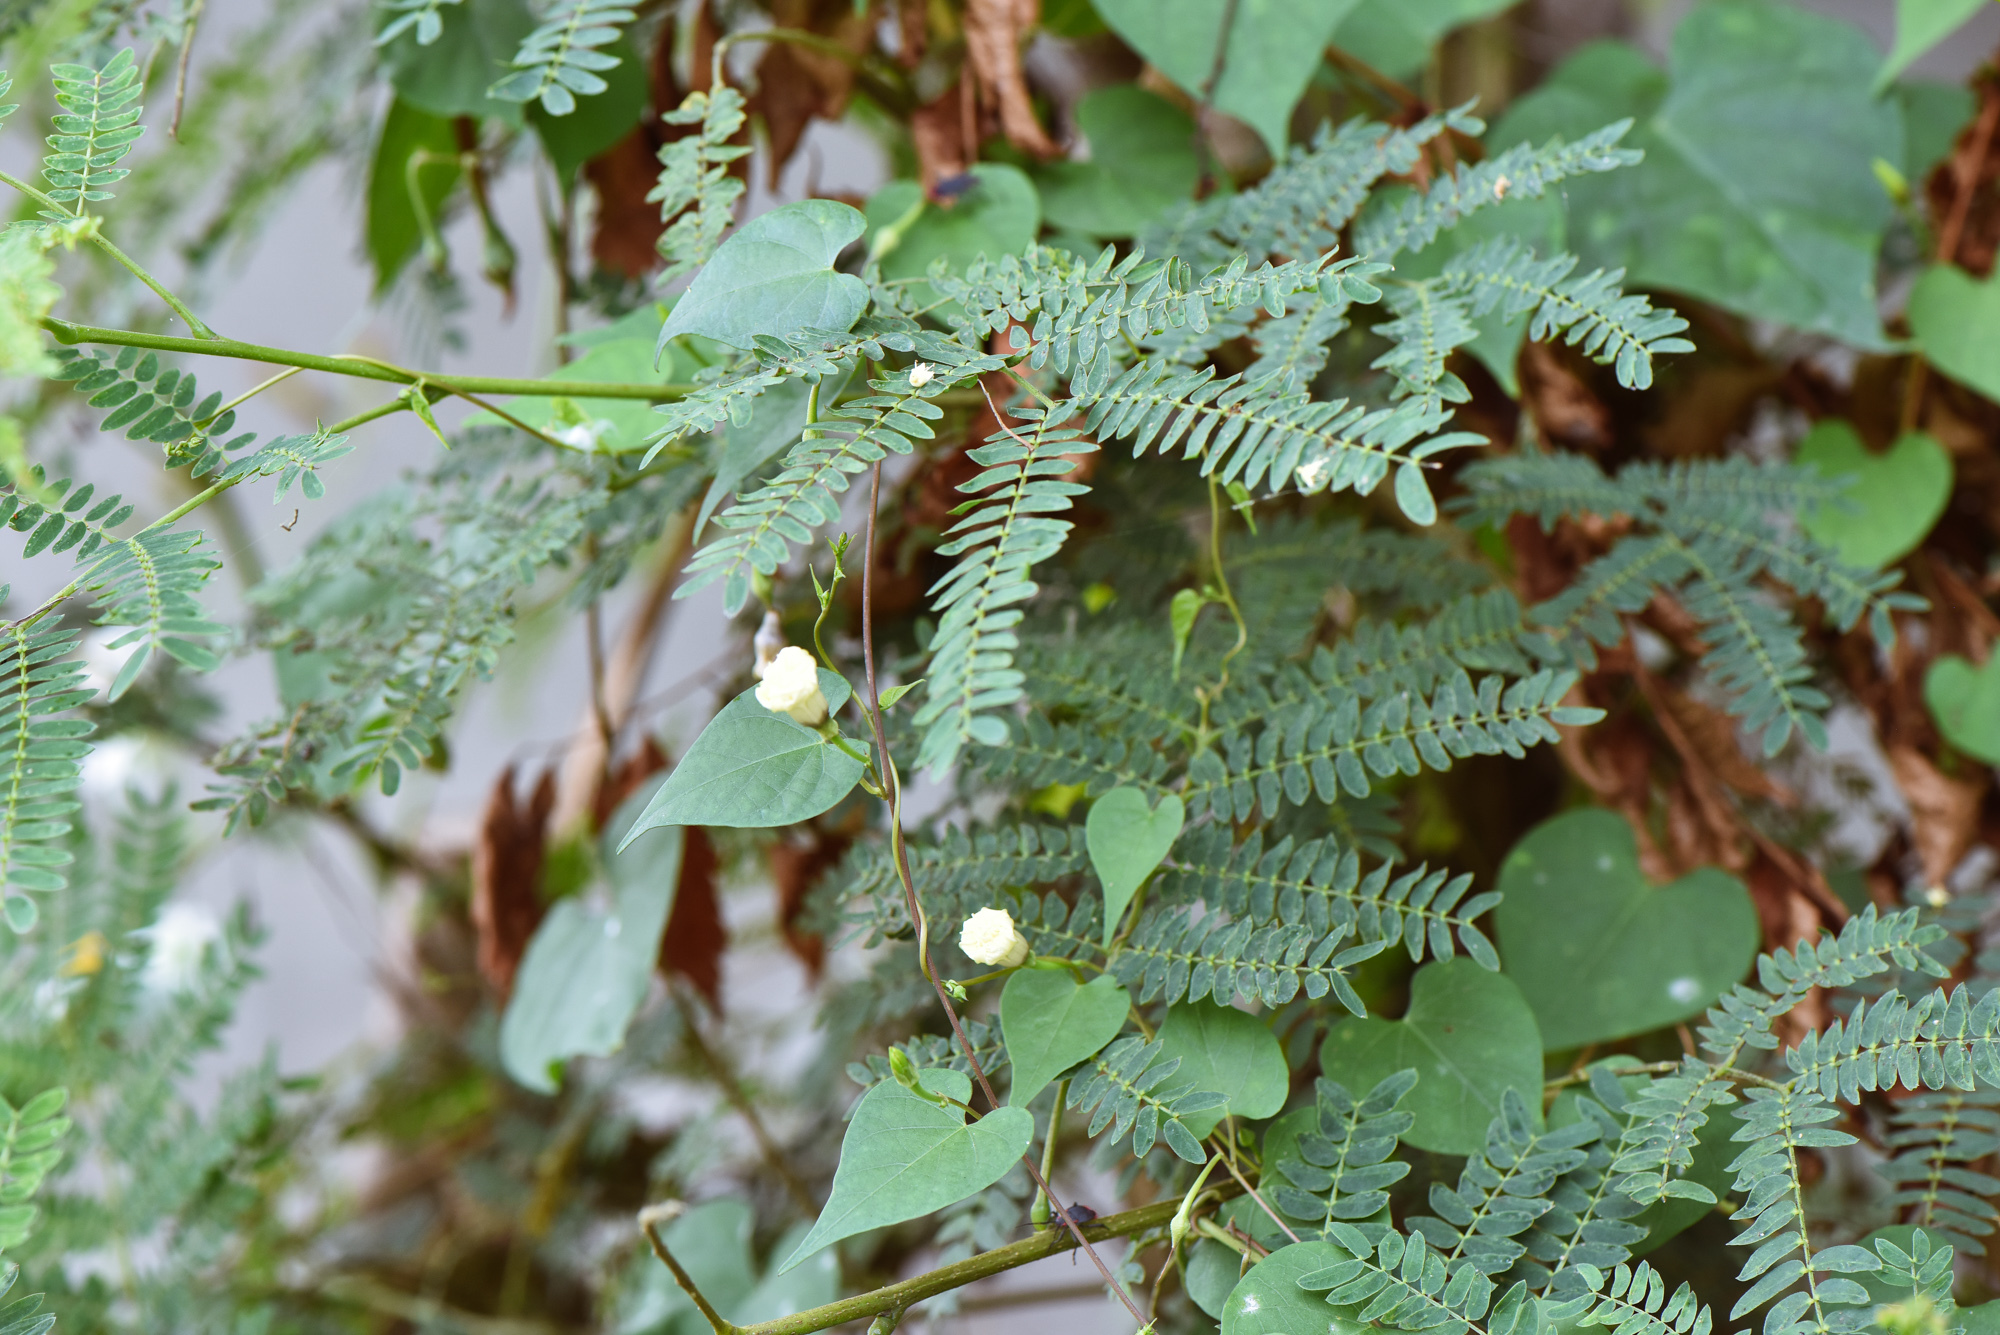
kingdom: Plantae
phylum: Tracheophyta
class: Magnoliopsida
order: Solanales
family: Convolvulaceae
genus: Ipomoea
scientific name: Ipomoea obscura
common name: Obscure morning-glory
